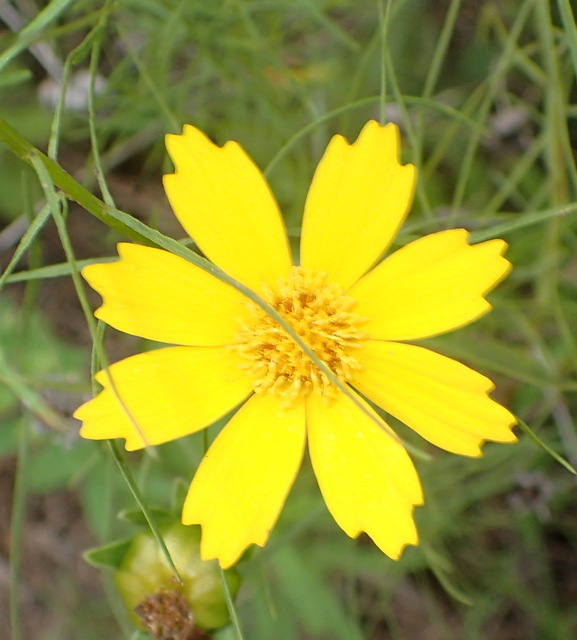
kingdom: Plantae
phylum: Tracheophyta
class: Magnoliopsida
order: Asterales
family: Asteraceae
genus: Coreopsis
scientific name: Coreopsis lanceolata
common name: Garden coreopsis
